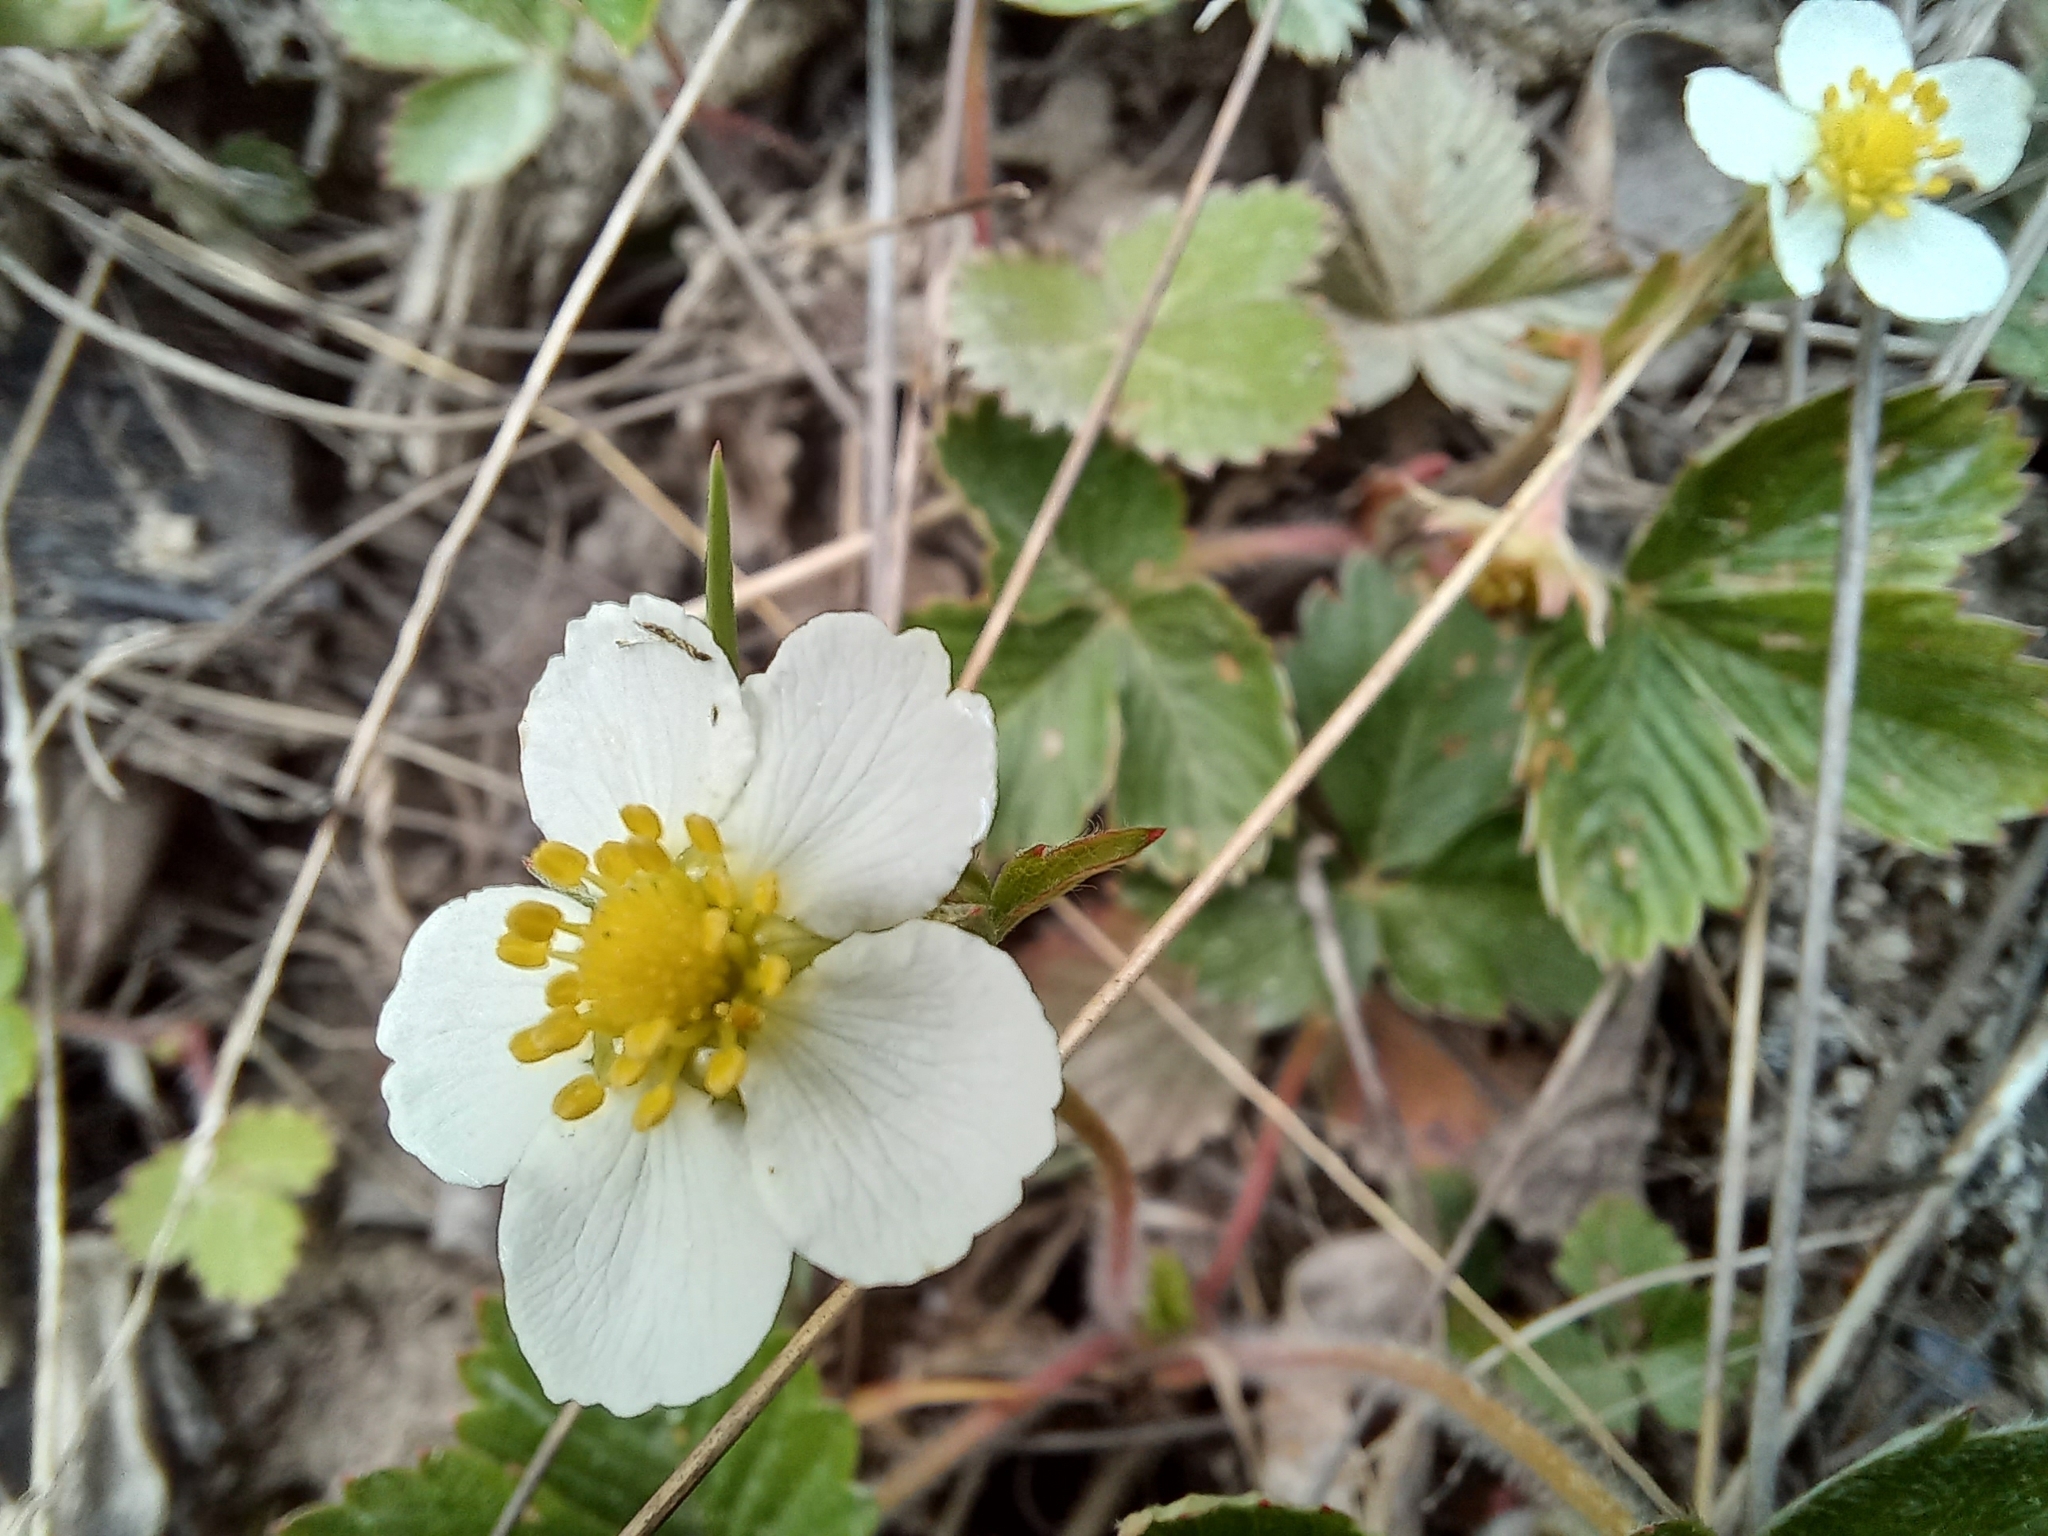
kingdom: Plantae
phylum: Tracheophyta
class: Magnoliopsida
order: Rosales
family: Rosaceae
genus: Fragaria
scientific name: Fragaria vesca
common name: Wild strawberry
